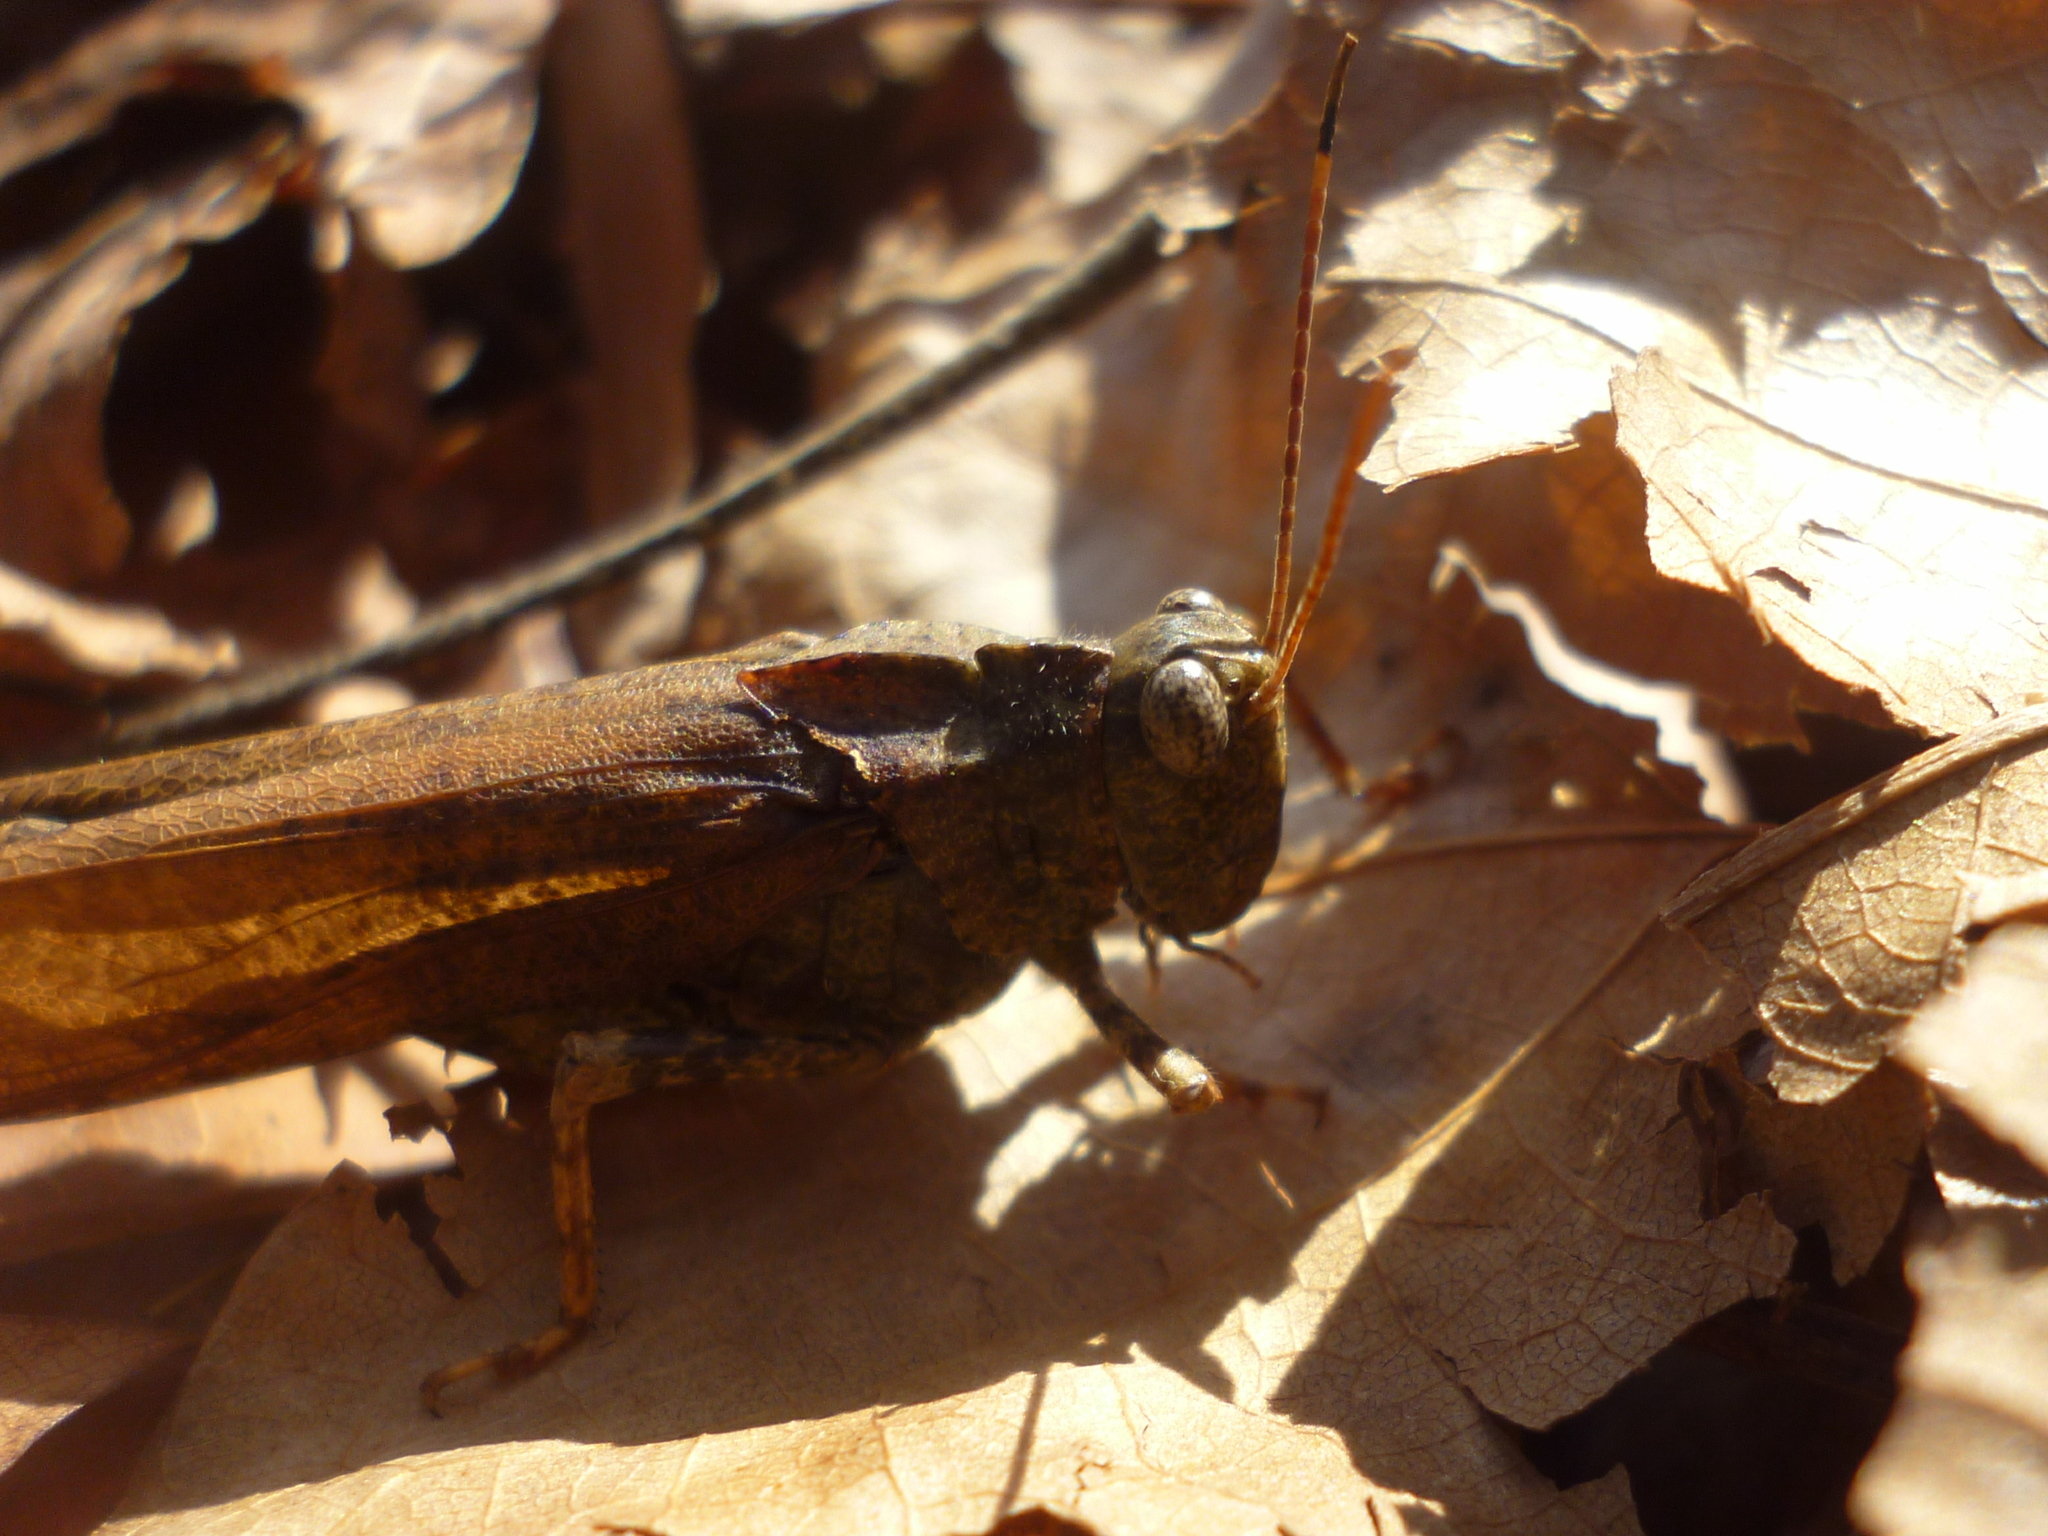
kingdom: Animalia
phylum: Arthropoda
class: Insecta
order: Orthoptera
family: Acrididae
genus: Dissosteira
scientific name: Dissosteira carolina
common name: Carolina grasshopper
